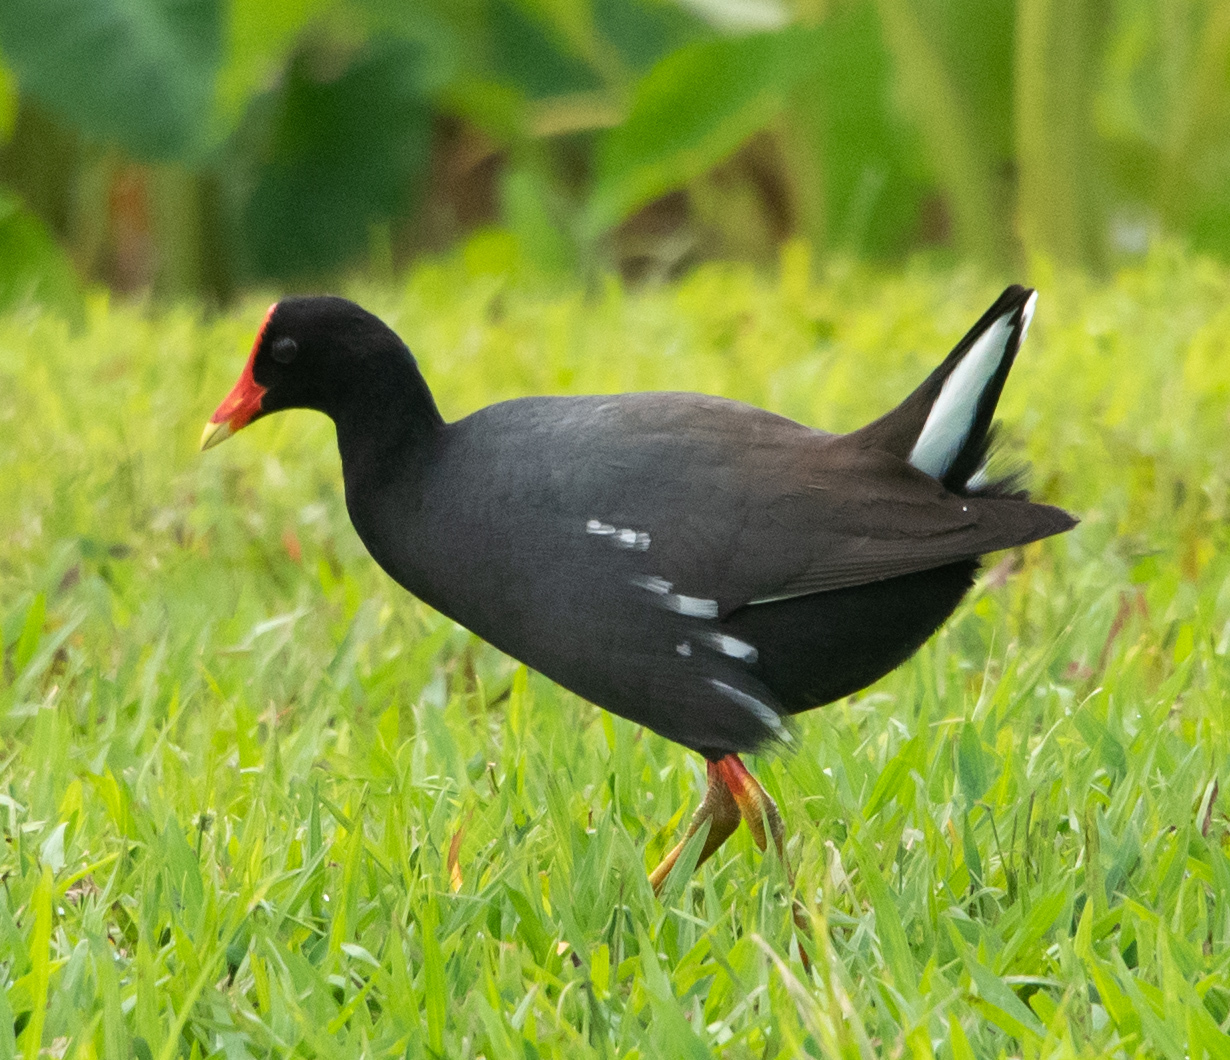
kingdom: Animalia
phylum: Chordata
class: Aves
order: Gruiformes
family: Rallidae
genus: Gallinula
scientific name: Gallinula chloropus
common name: Common moorhen
